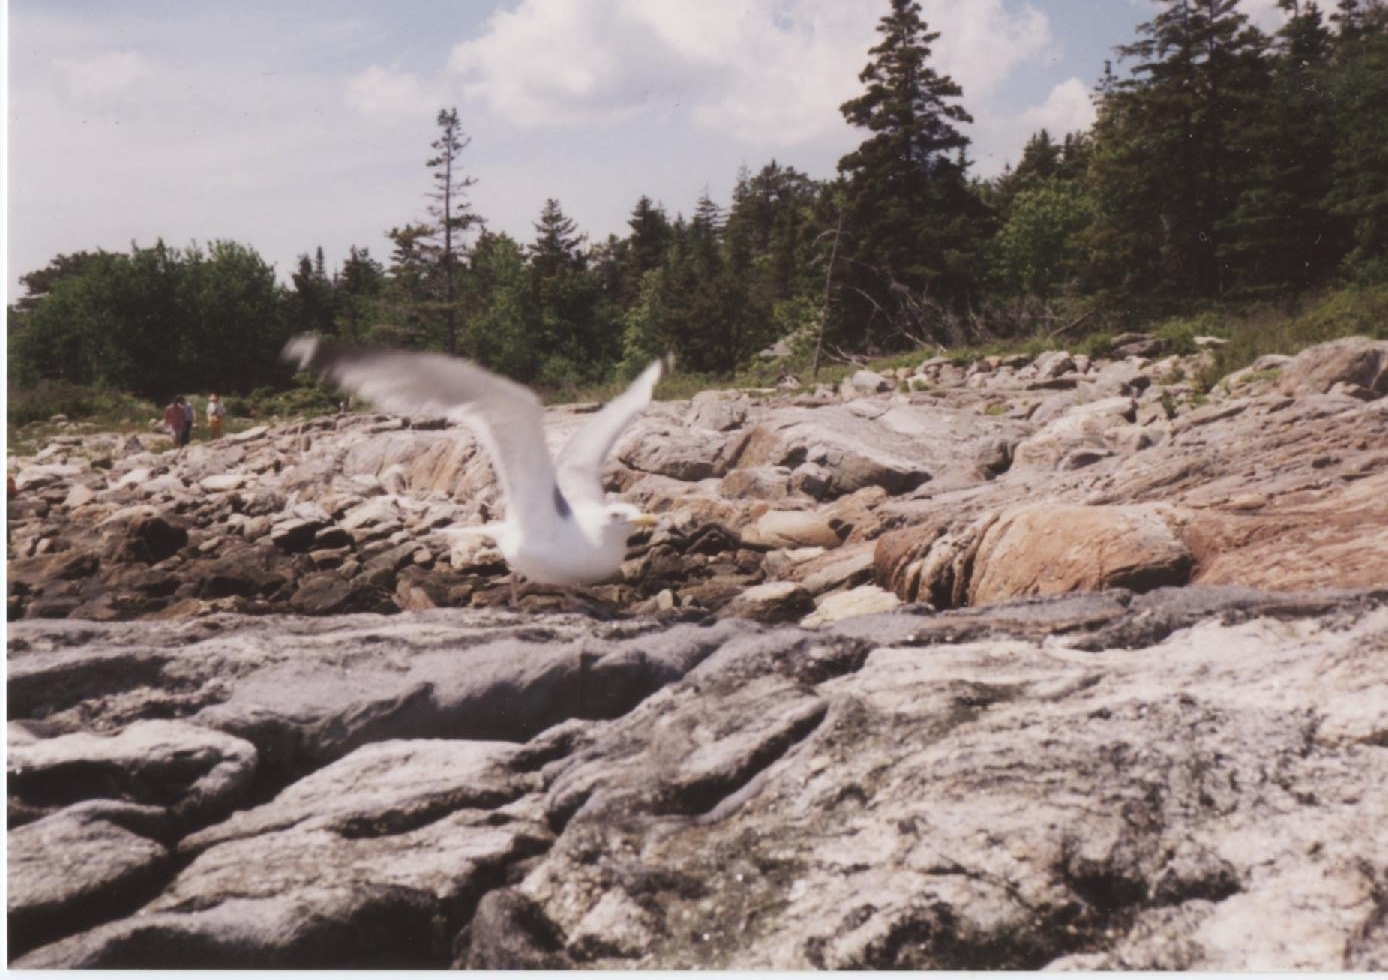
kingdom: Animalia
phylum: Chordata
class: Aves
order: Charadriiformes
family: Laridae
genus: Larus
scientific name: Larus argentatus
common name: Herring gull
